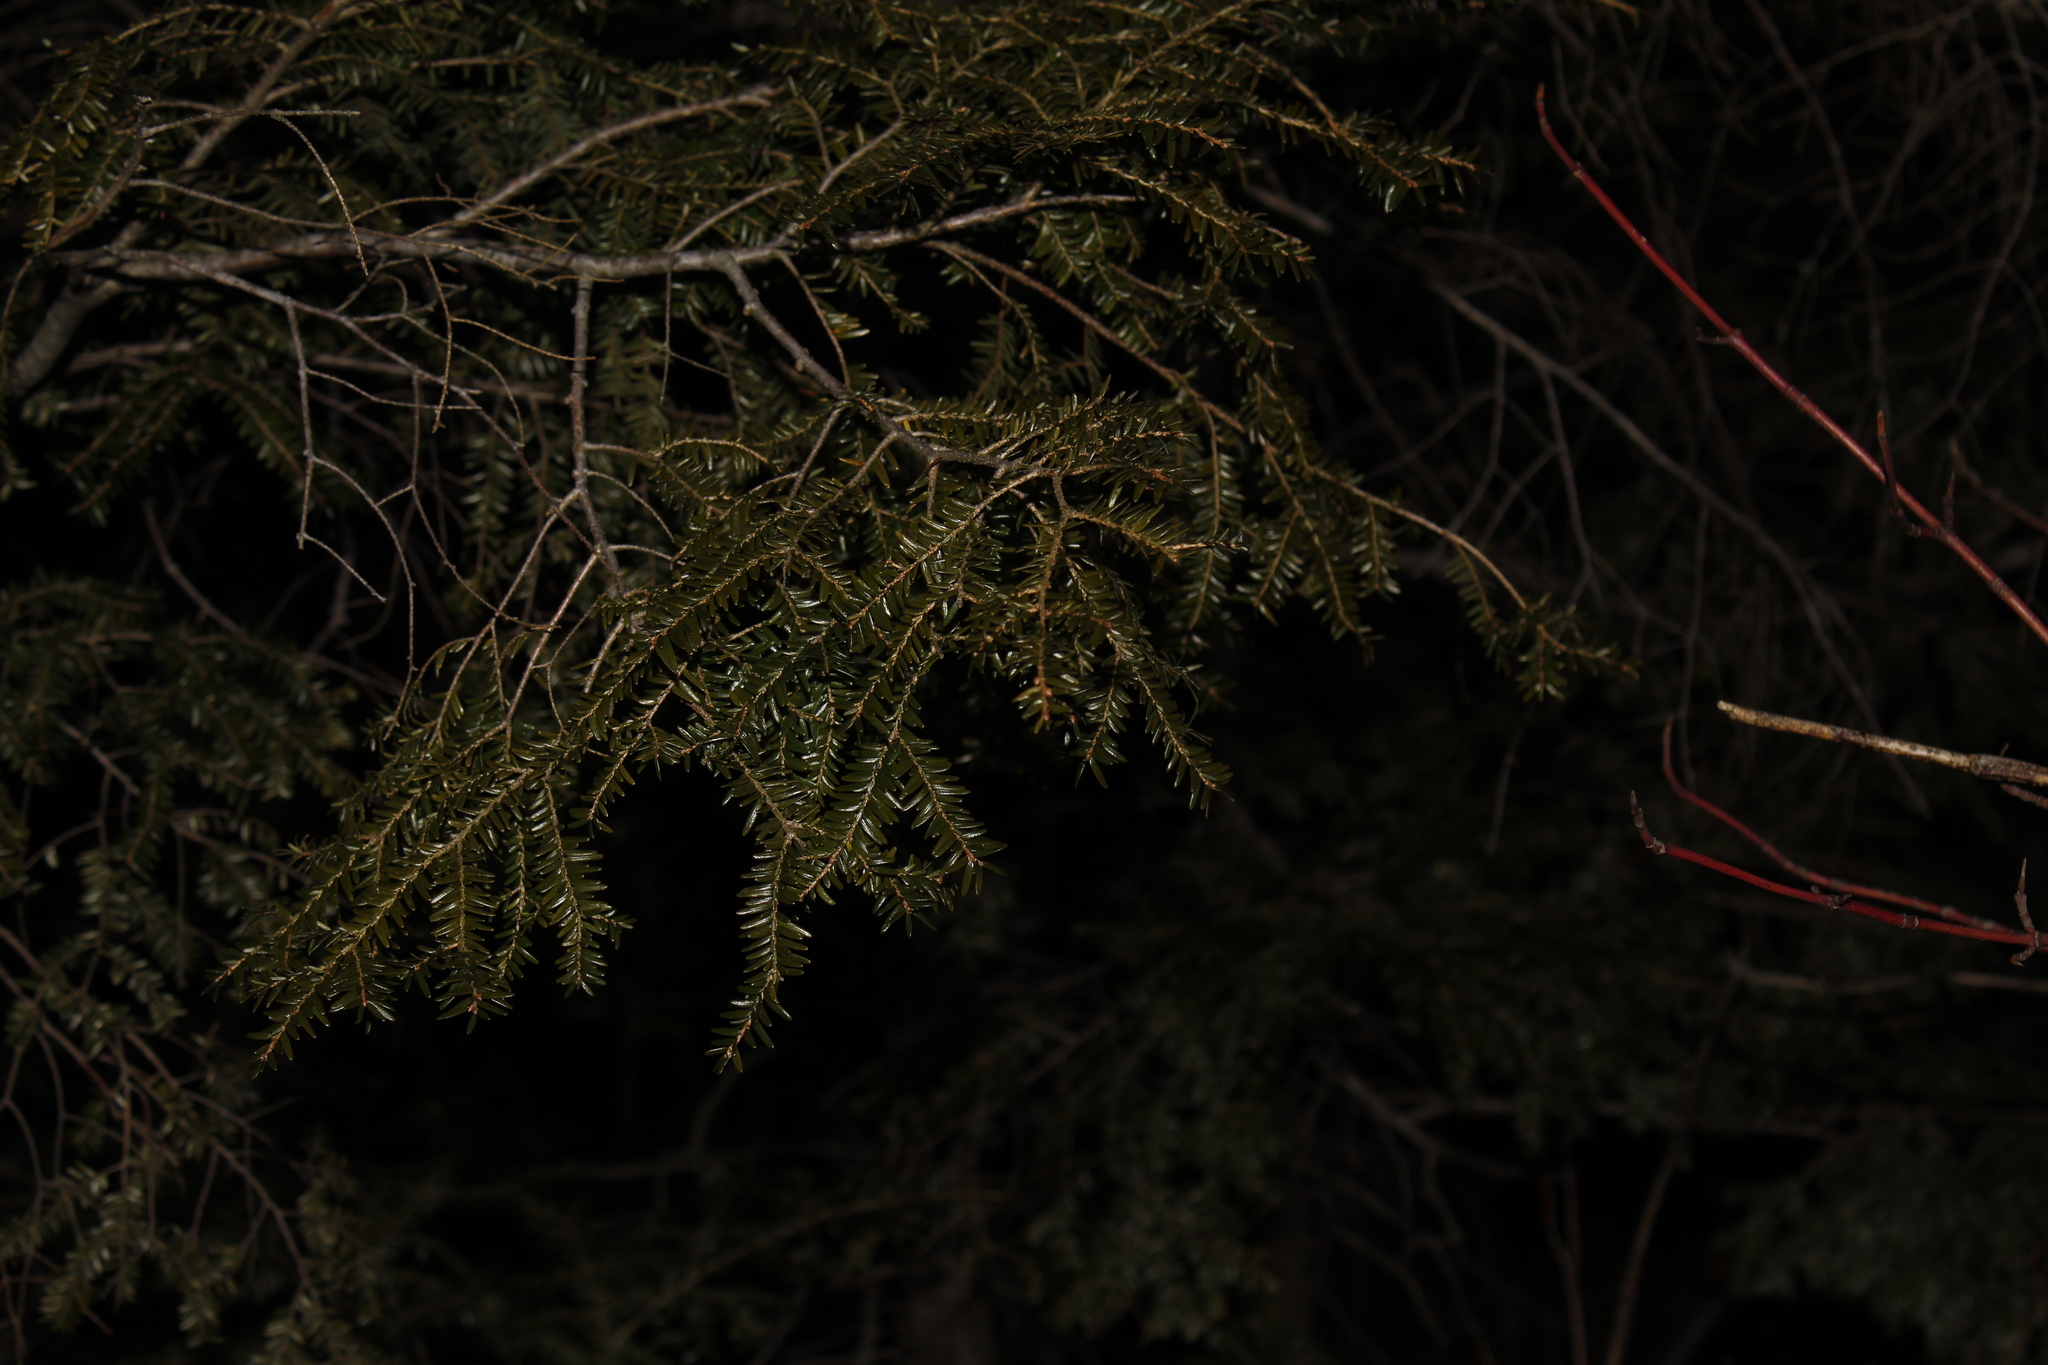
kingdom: Plantae
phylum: Tracheophyta
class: Pinopsida
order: Pinales
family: Pinaceae
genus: Tsuga
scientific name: Tsuga canadensis
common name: Eastern hemlock
